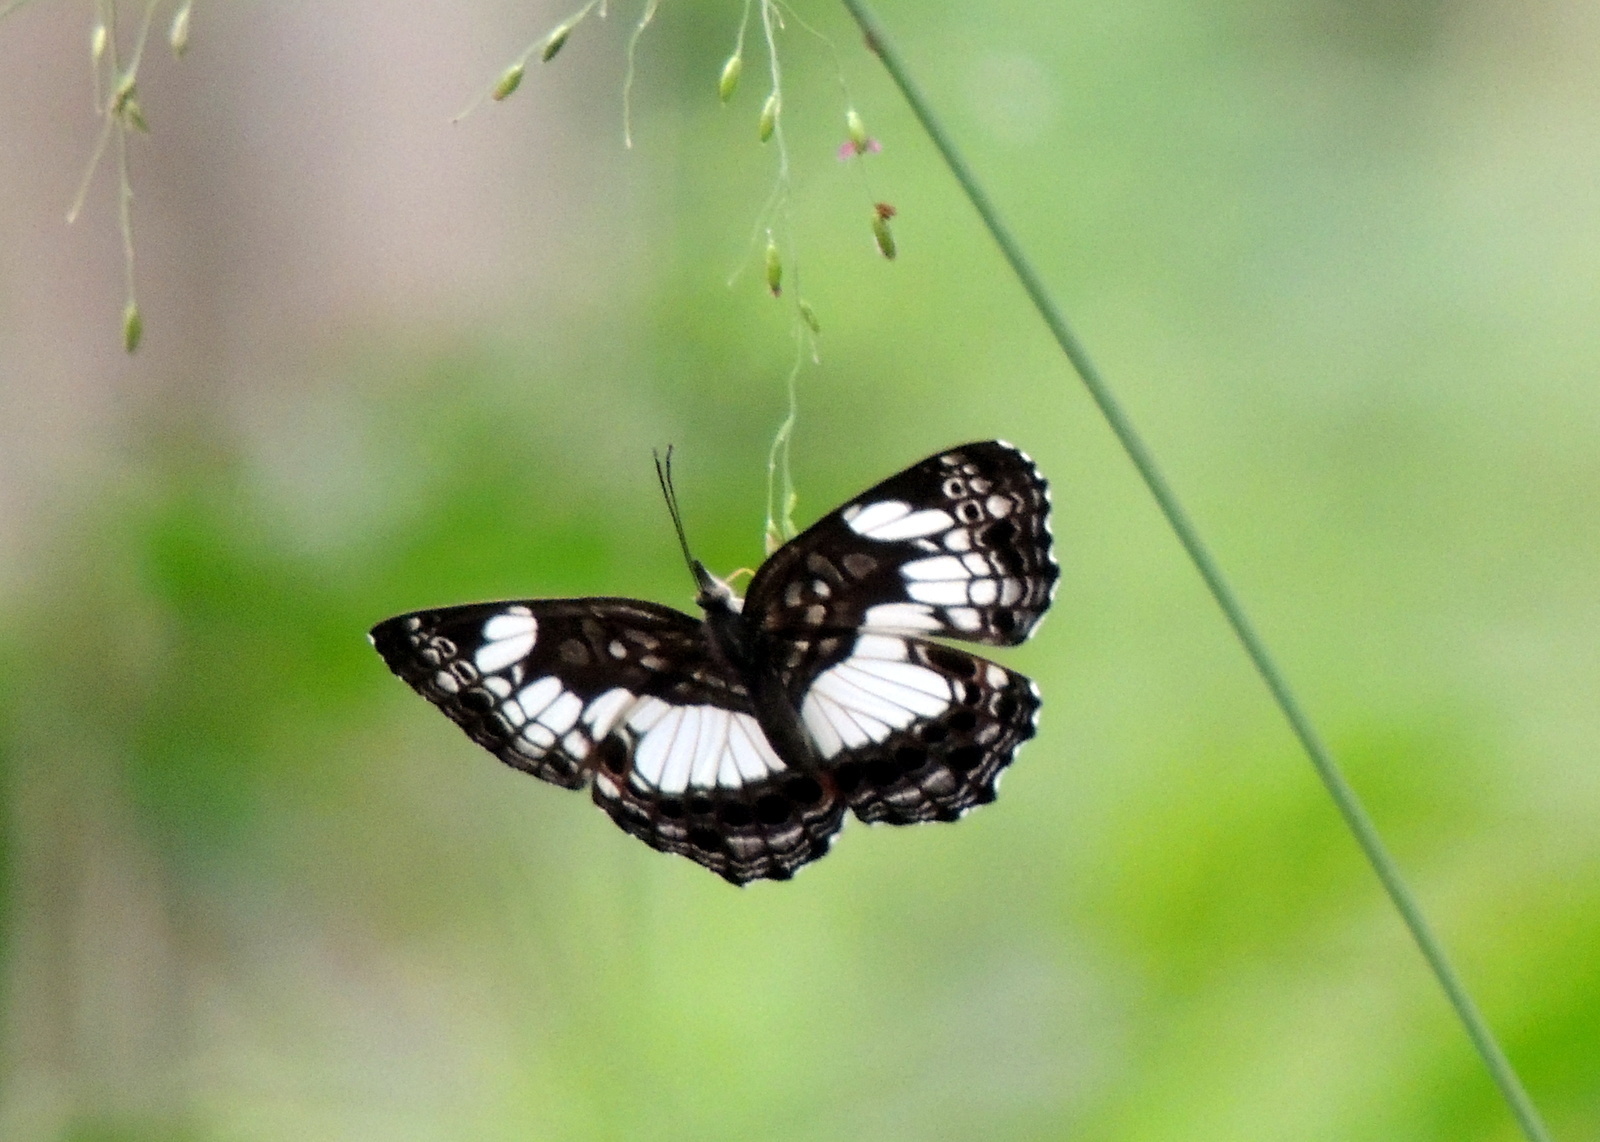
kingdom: Animalia
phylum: Arthropoda
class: Insecta
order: Lepidoptera
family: Nymphalidae
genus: Neptidopsis
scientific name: Neptidopsis ophione
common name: Scalloped false sailor
